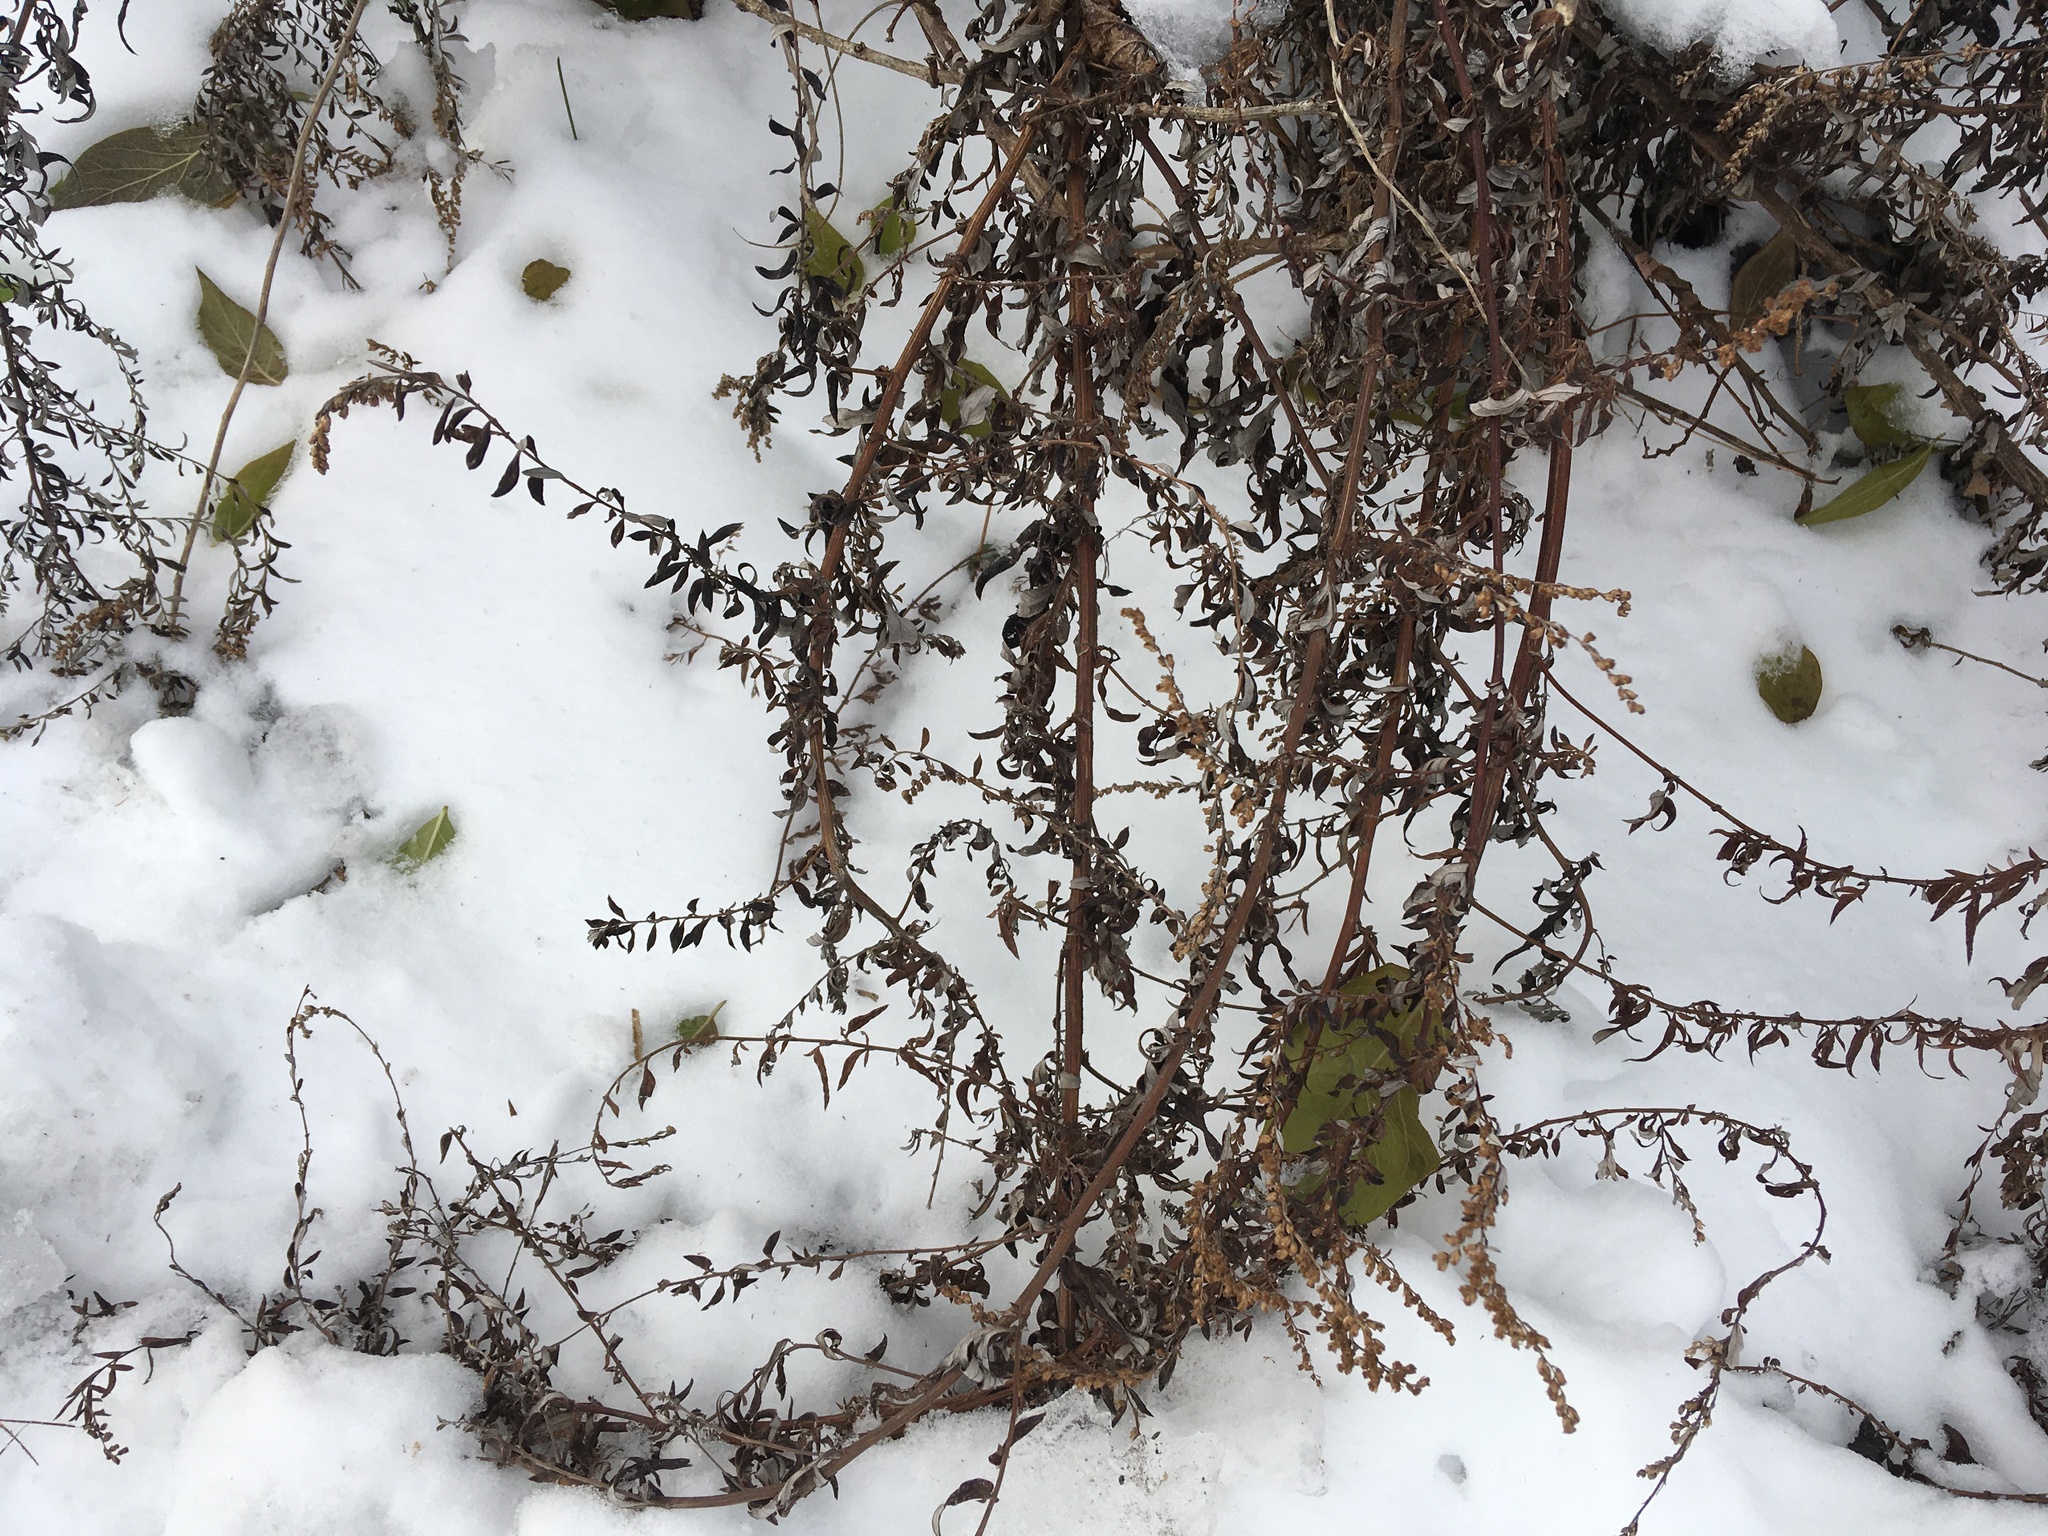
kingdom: Plantae
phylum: Tracheophyta
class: Magnoliopsida
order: Asterales
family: Asteraceae
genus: Artemisia
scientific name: Artemisia vulgaris
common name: Mugwort
